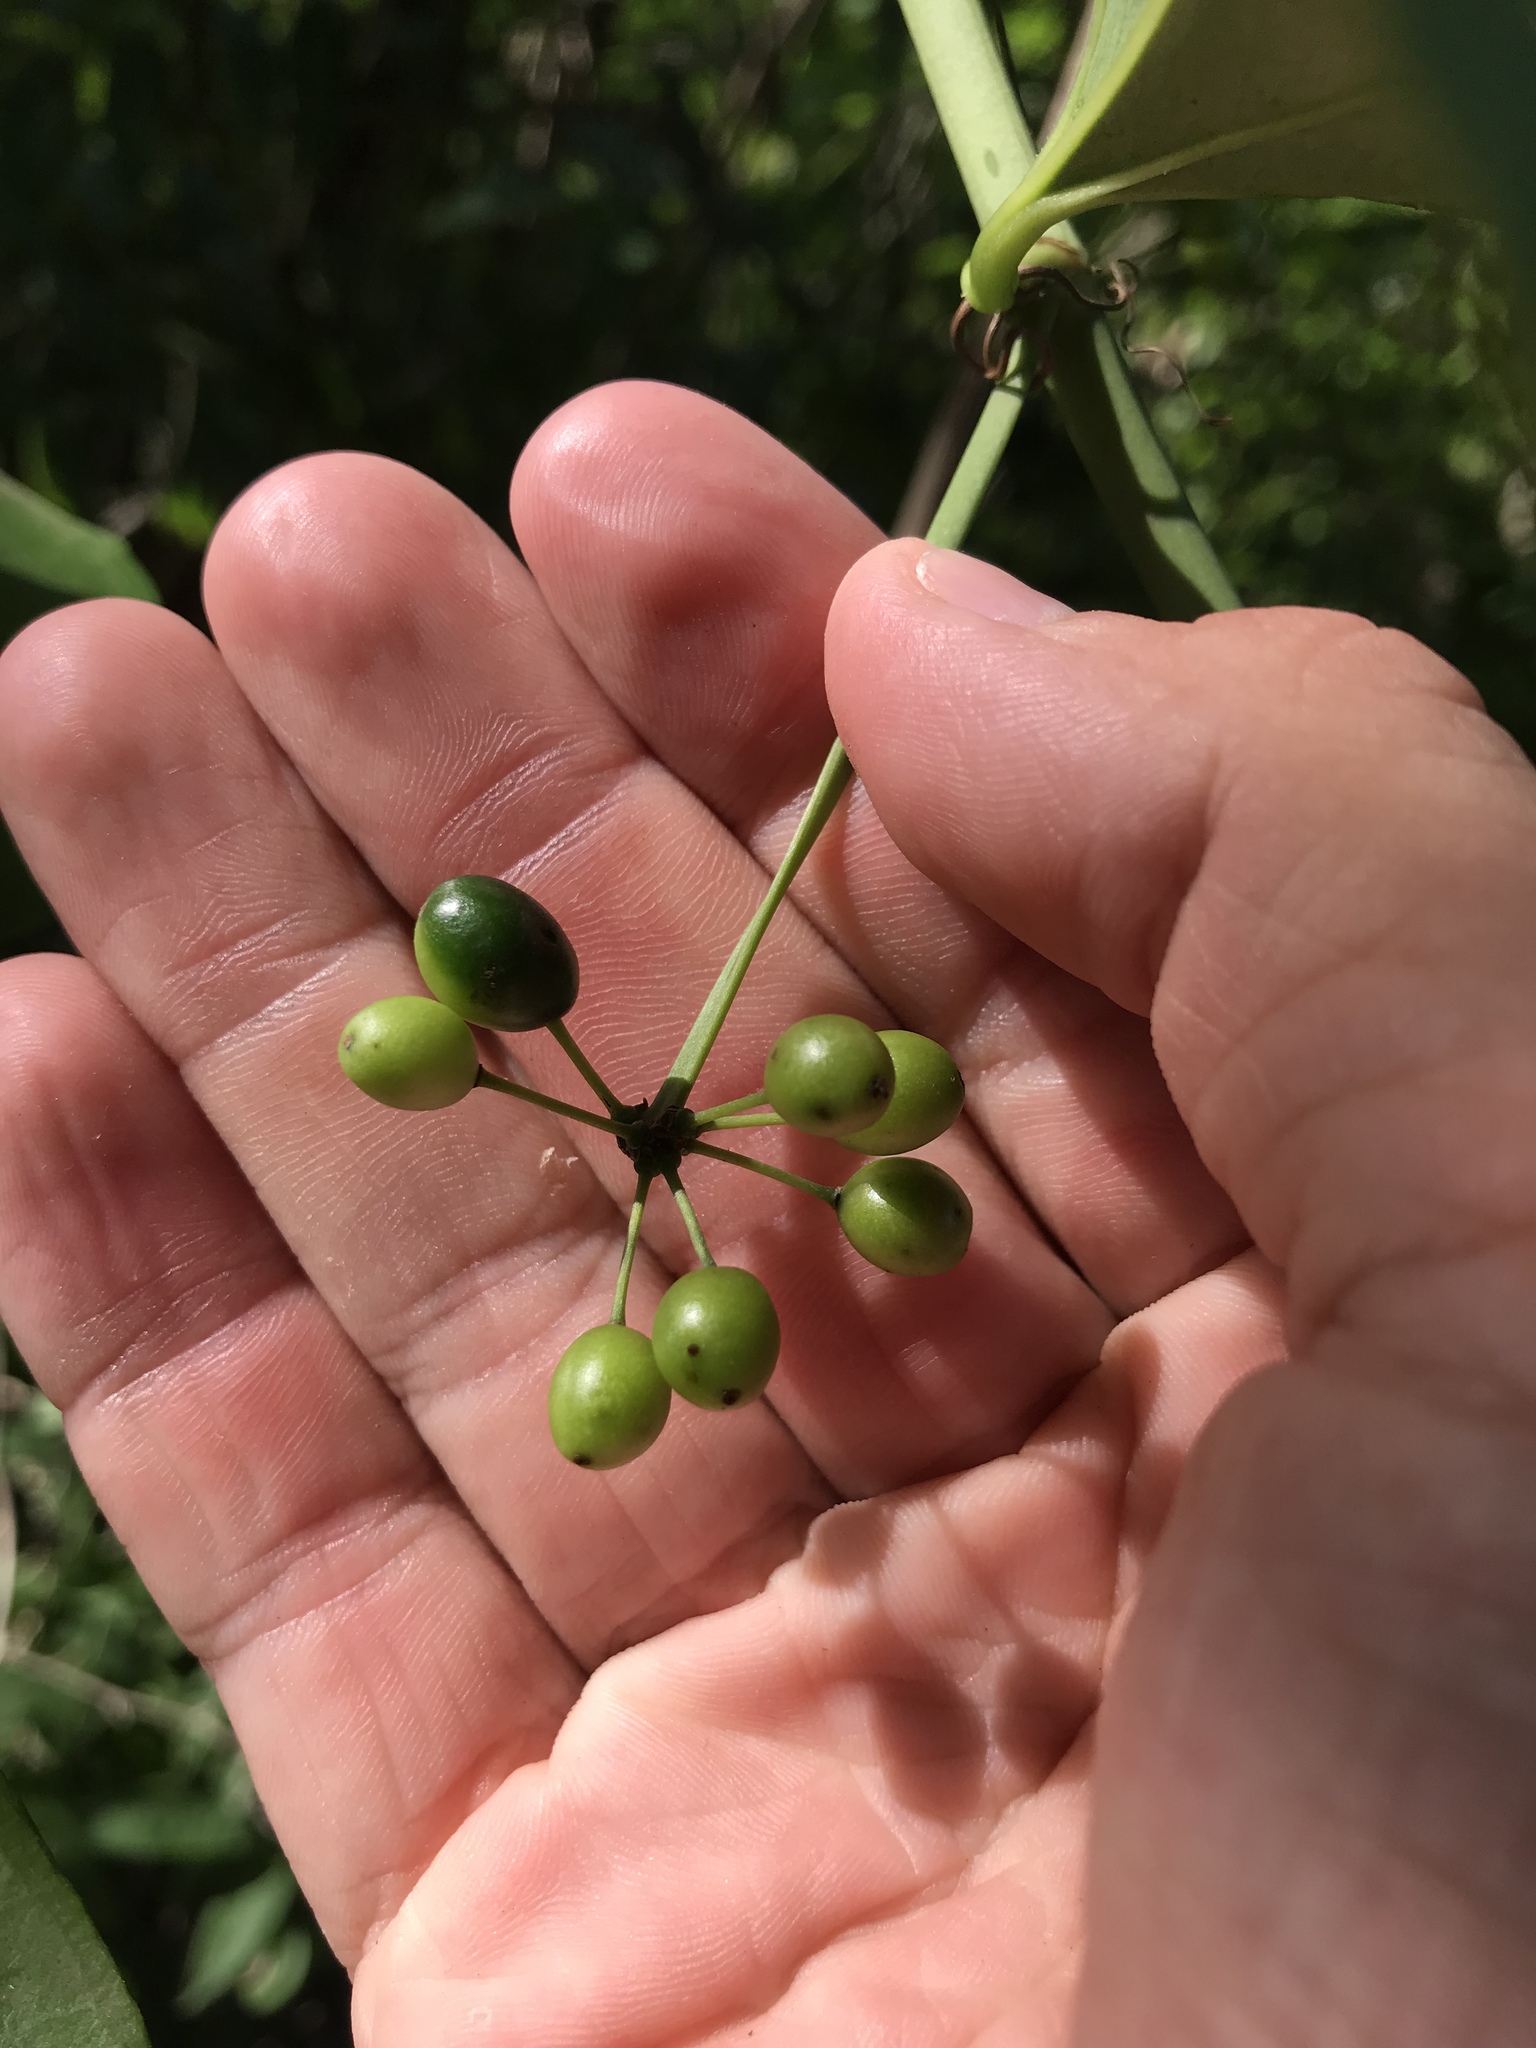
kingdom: Plantae
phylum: Tracheophyta
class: Liliopsida
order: Liliales
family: Smilacaceae
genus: Smilax
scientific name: Smilax rotundifolia
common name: Bullbriar
